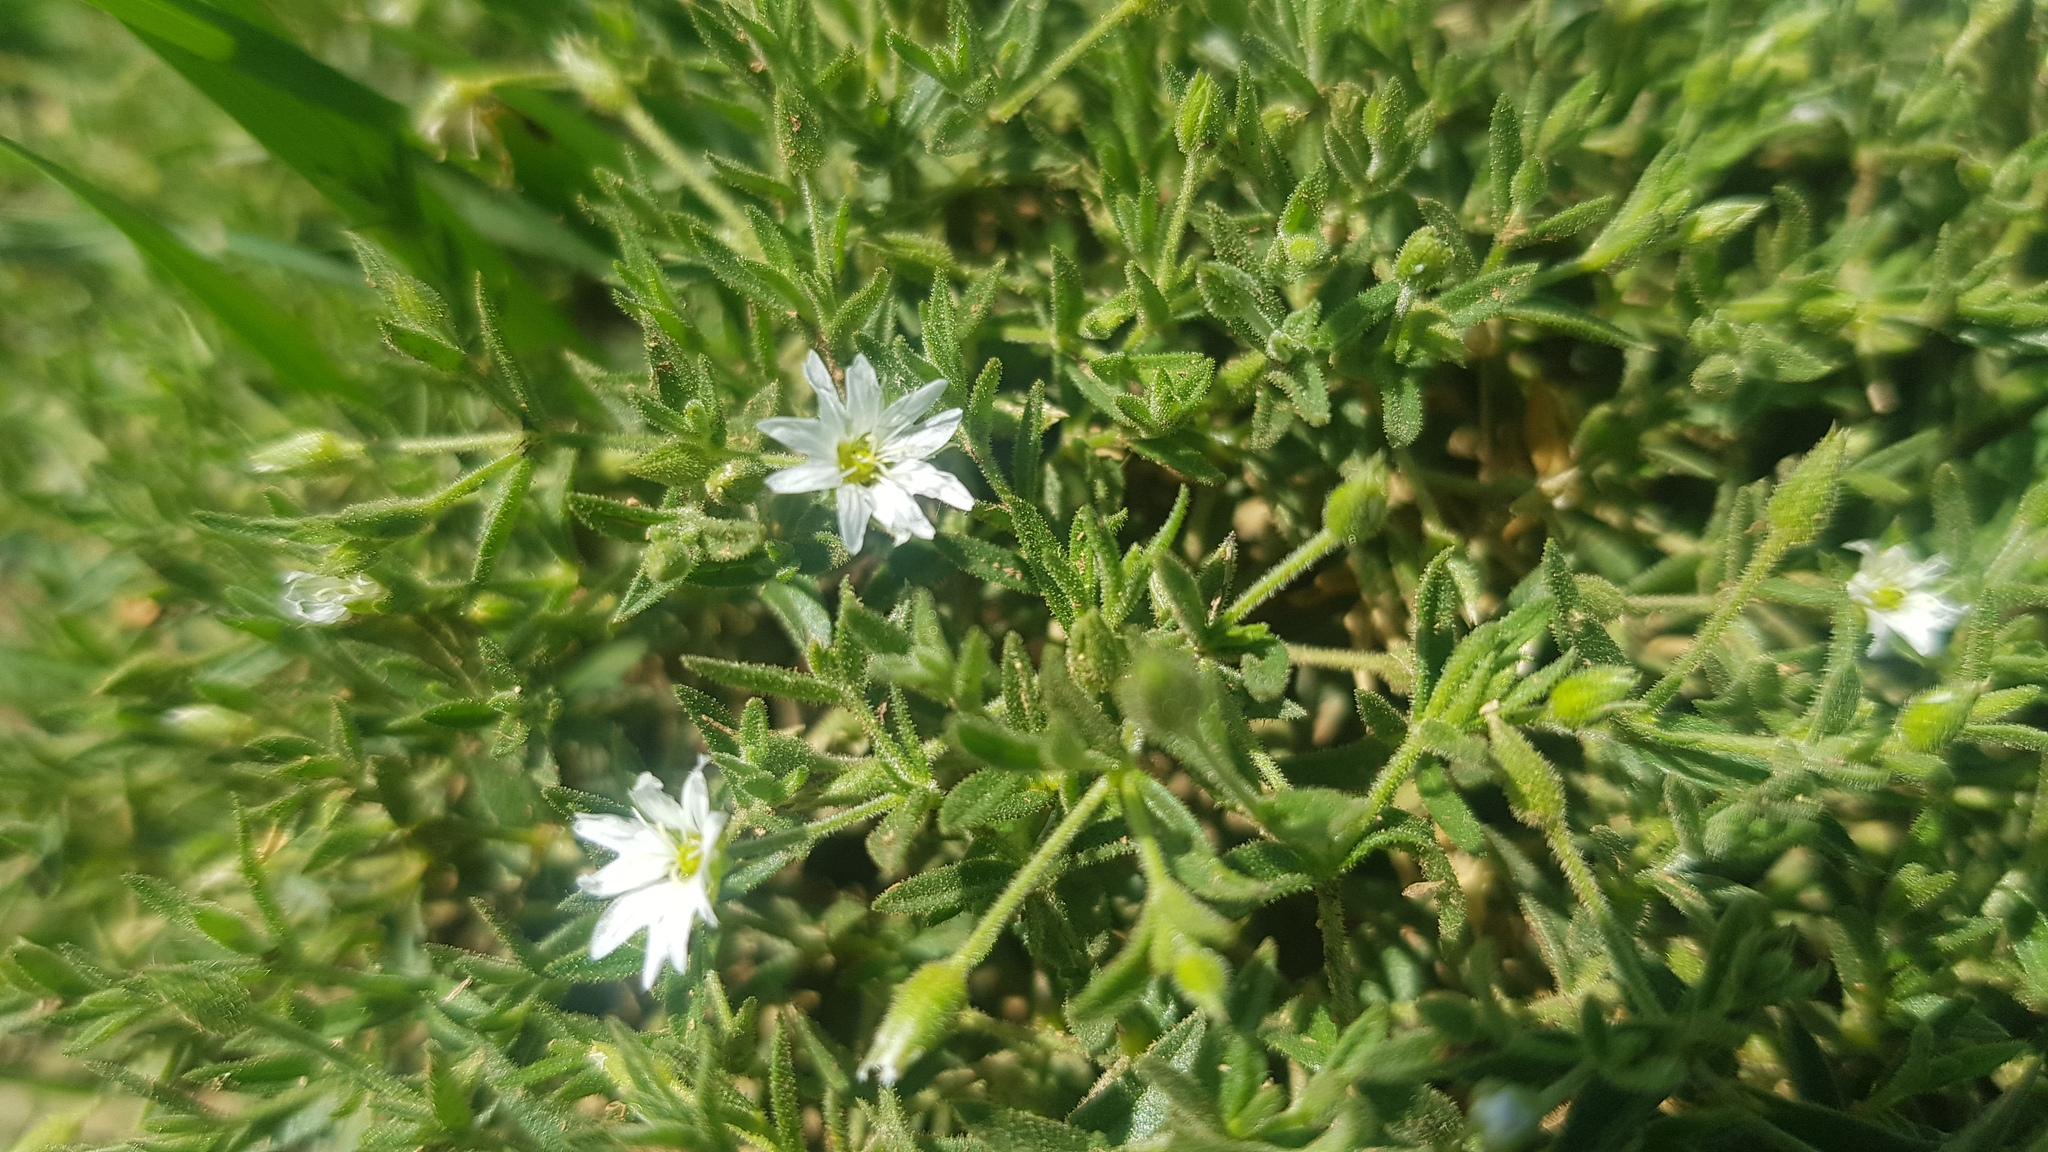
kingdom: Plantae
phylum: Tracheophyta
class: Magnoliopsida
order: Caryophyllales
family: Caryophyllaceae
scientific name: Caryophyllaceae
